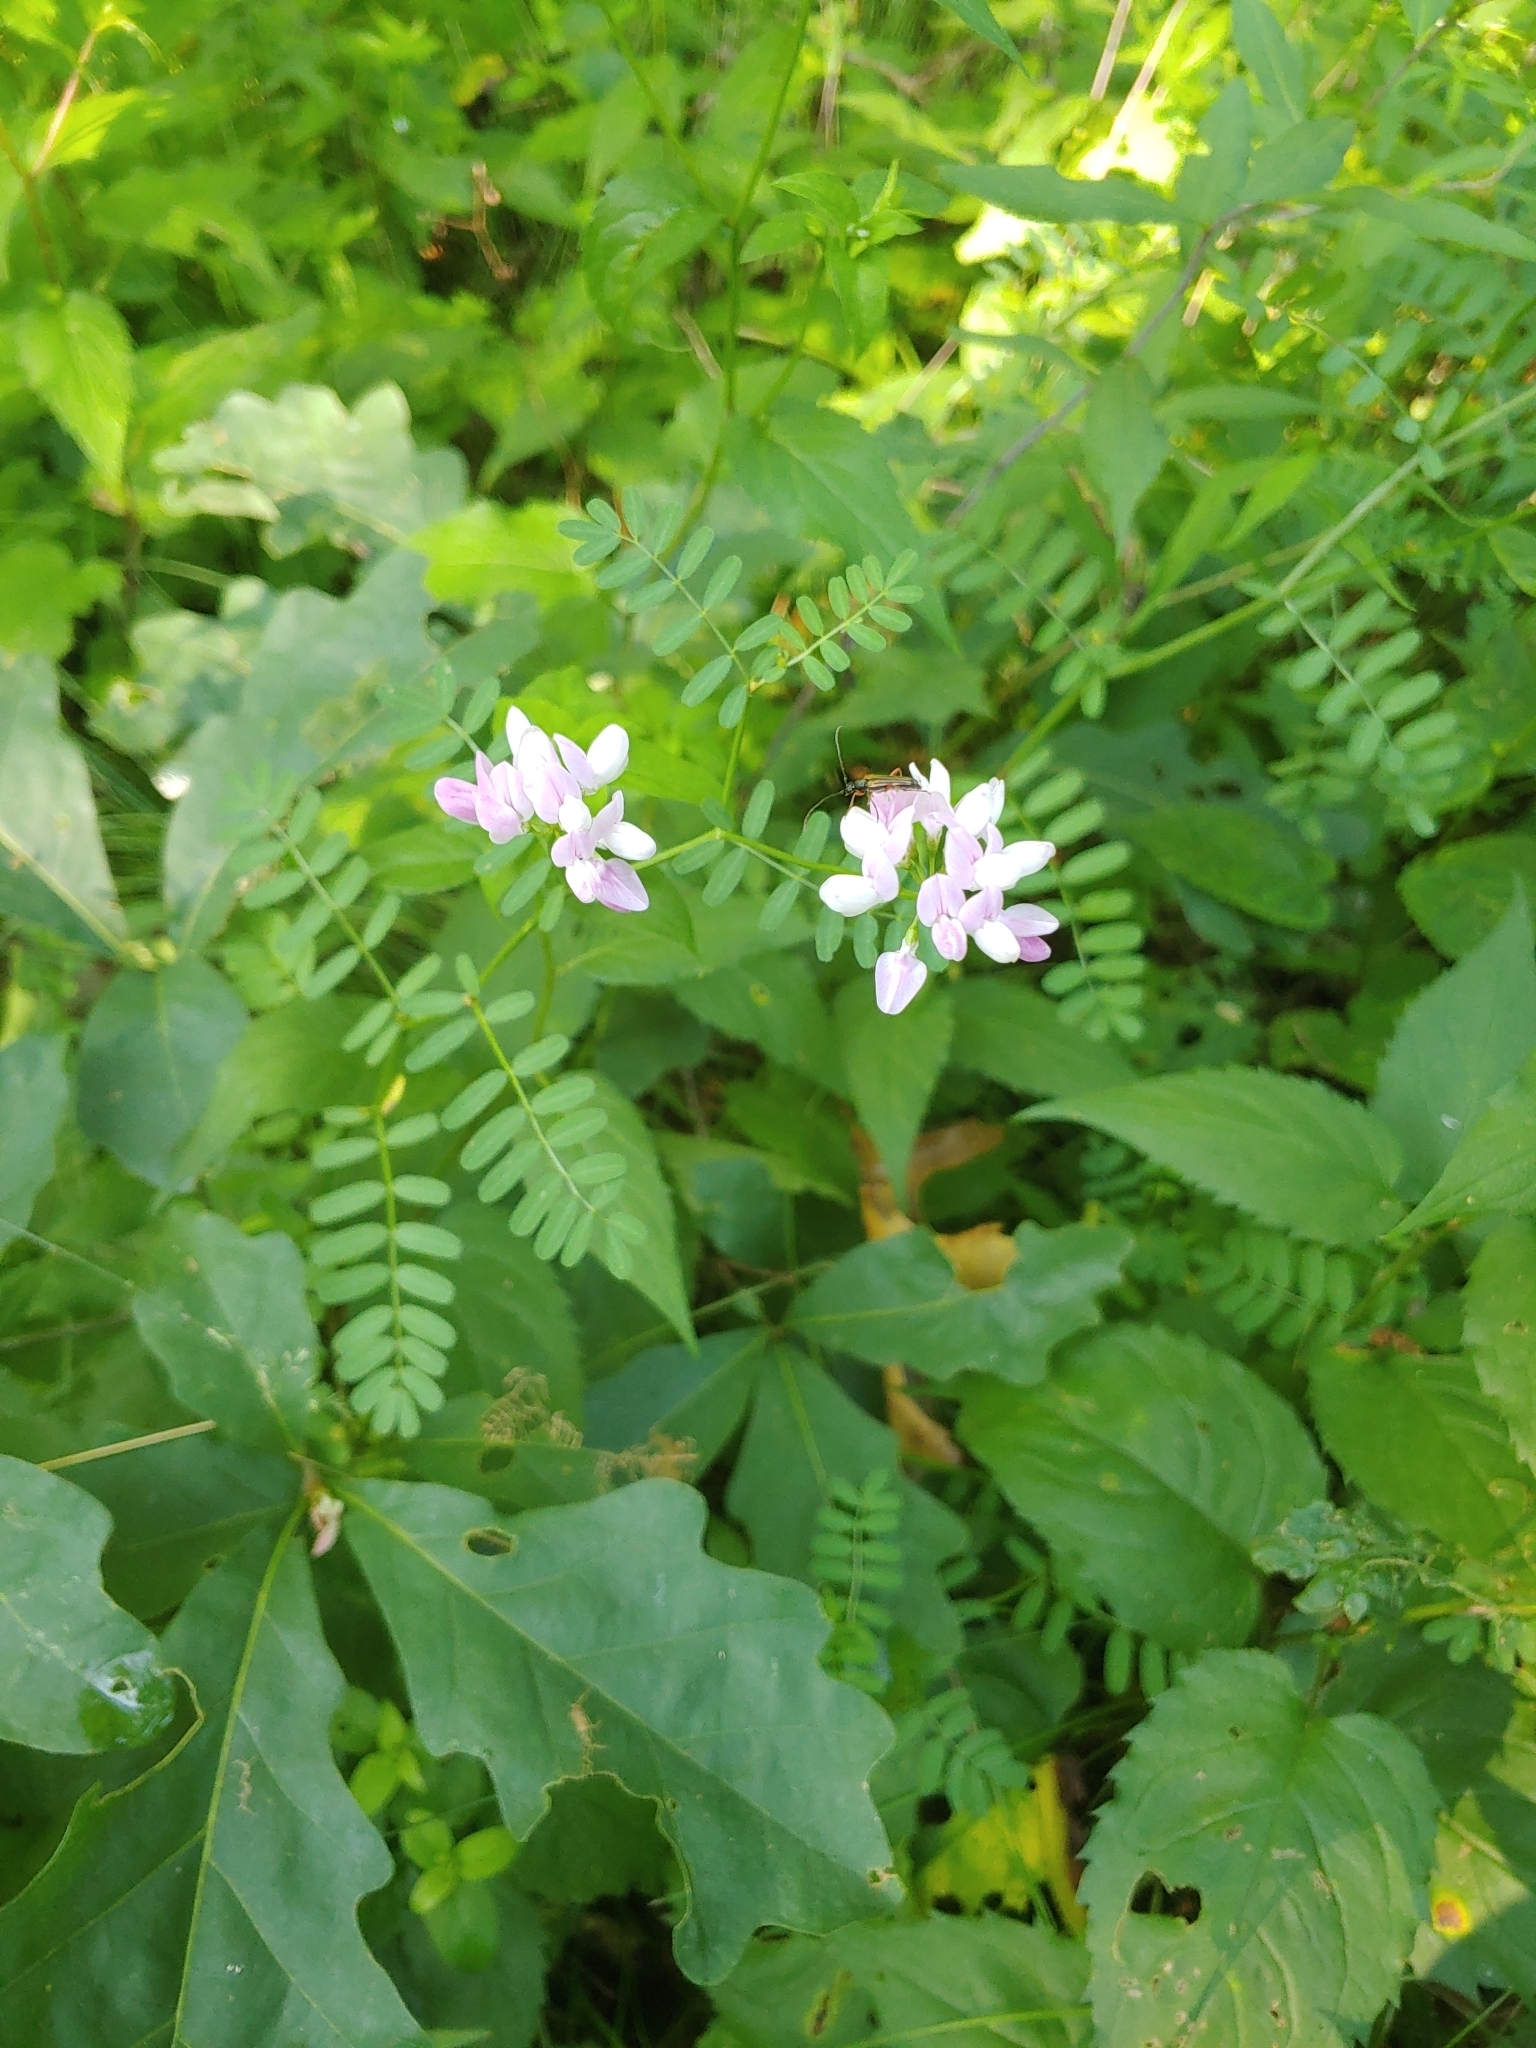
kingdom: Plantae
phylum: Tracheophyta
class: Magnoliopsida
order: Fabales
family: Fabaceae
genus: Coronilla
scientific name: Coronilla varia
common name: Crownvetch
